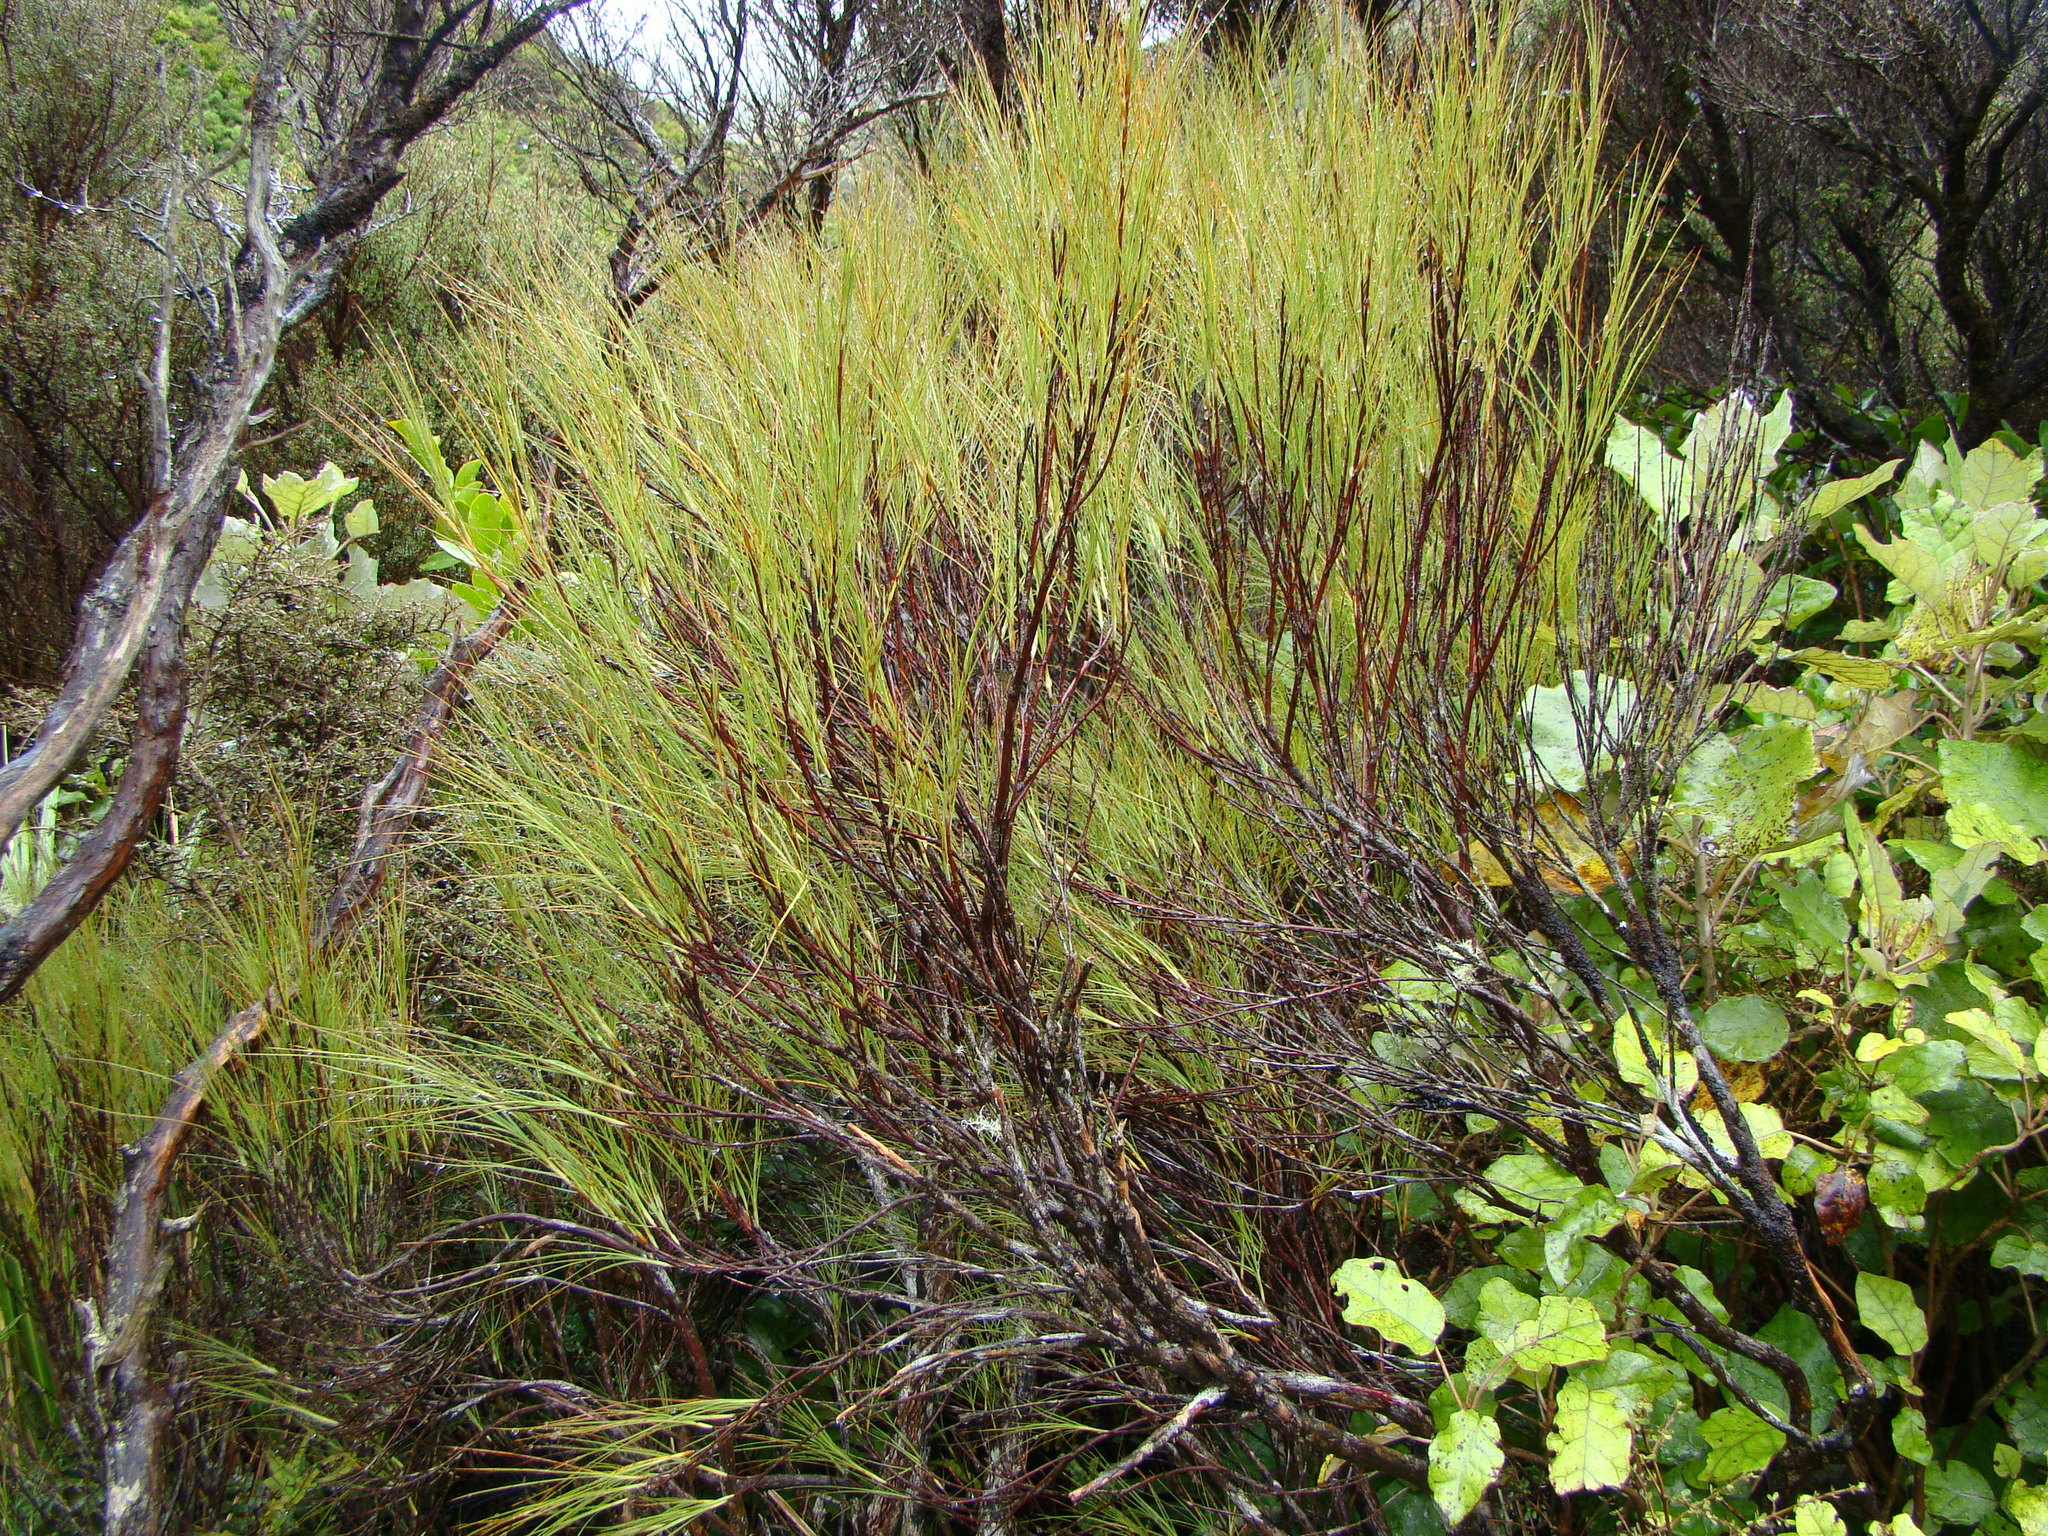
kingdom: Plantae
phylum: Tracheophyta
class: Magnoliopsida
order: Ericales
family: Ericaceae
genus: Dracophyllum
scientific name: Dracophyllum filifolium
